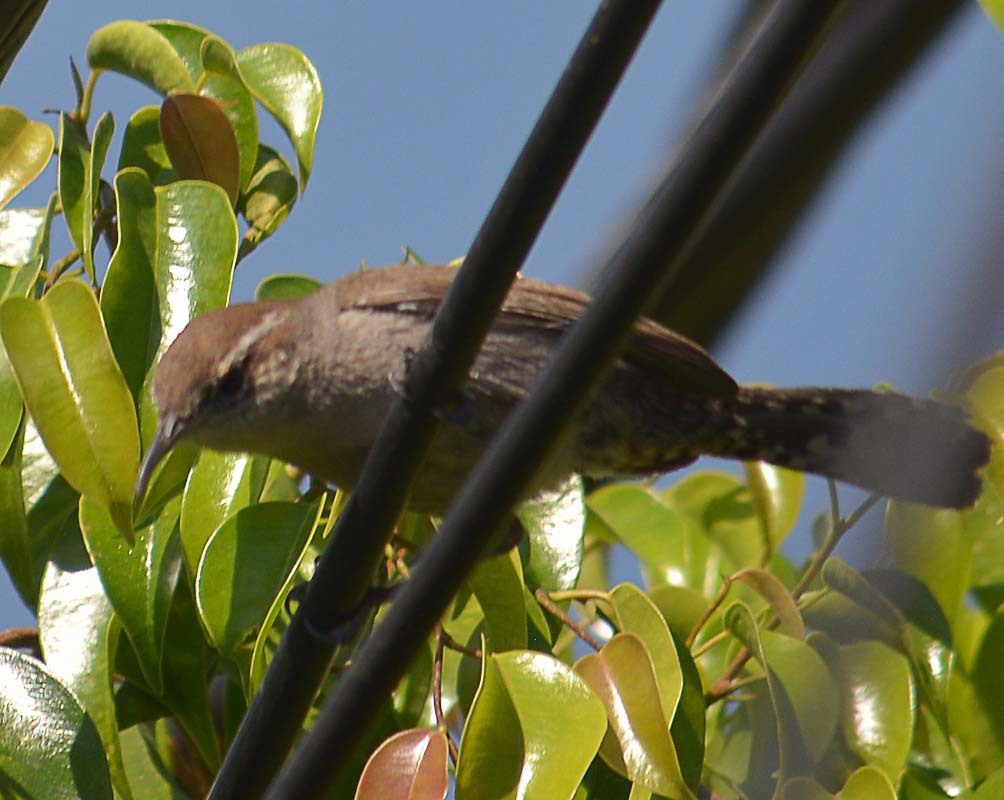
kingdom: Animalia
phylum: Chordata
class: Aves
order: Passeriformes
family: Troglodytidae
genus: Thryomanes
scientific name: Thryomanes bewickii
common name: Bewick's wren
